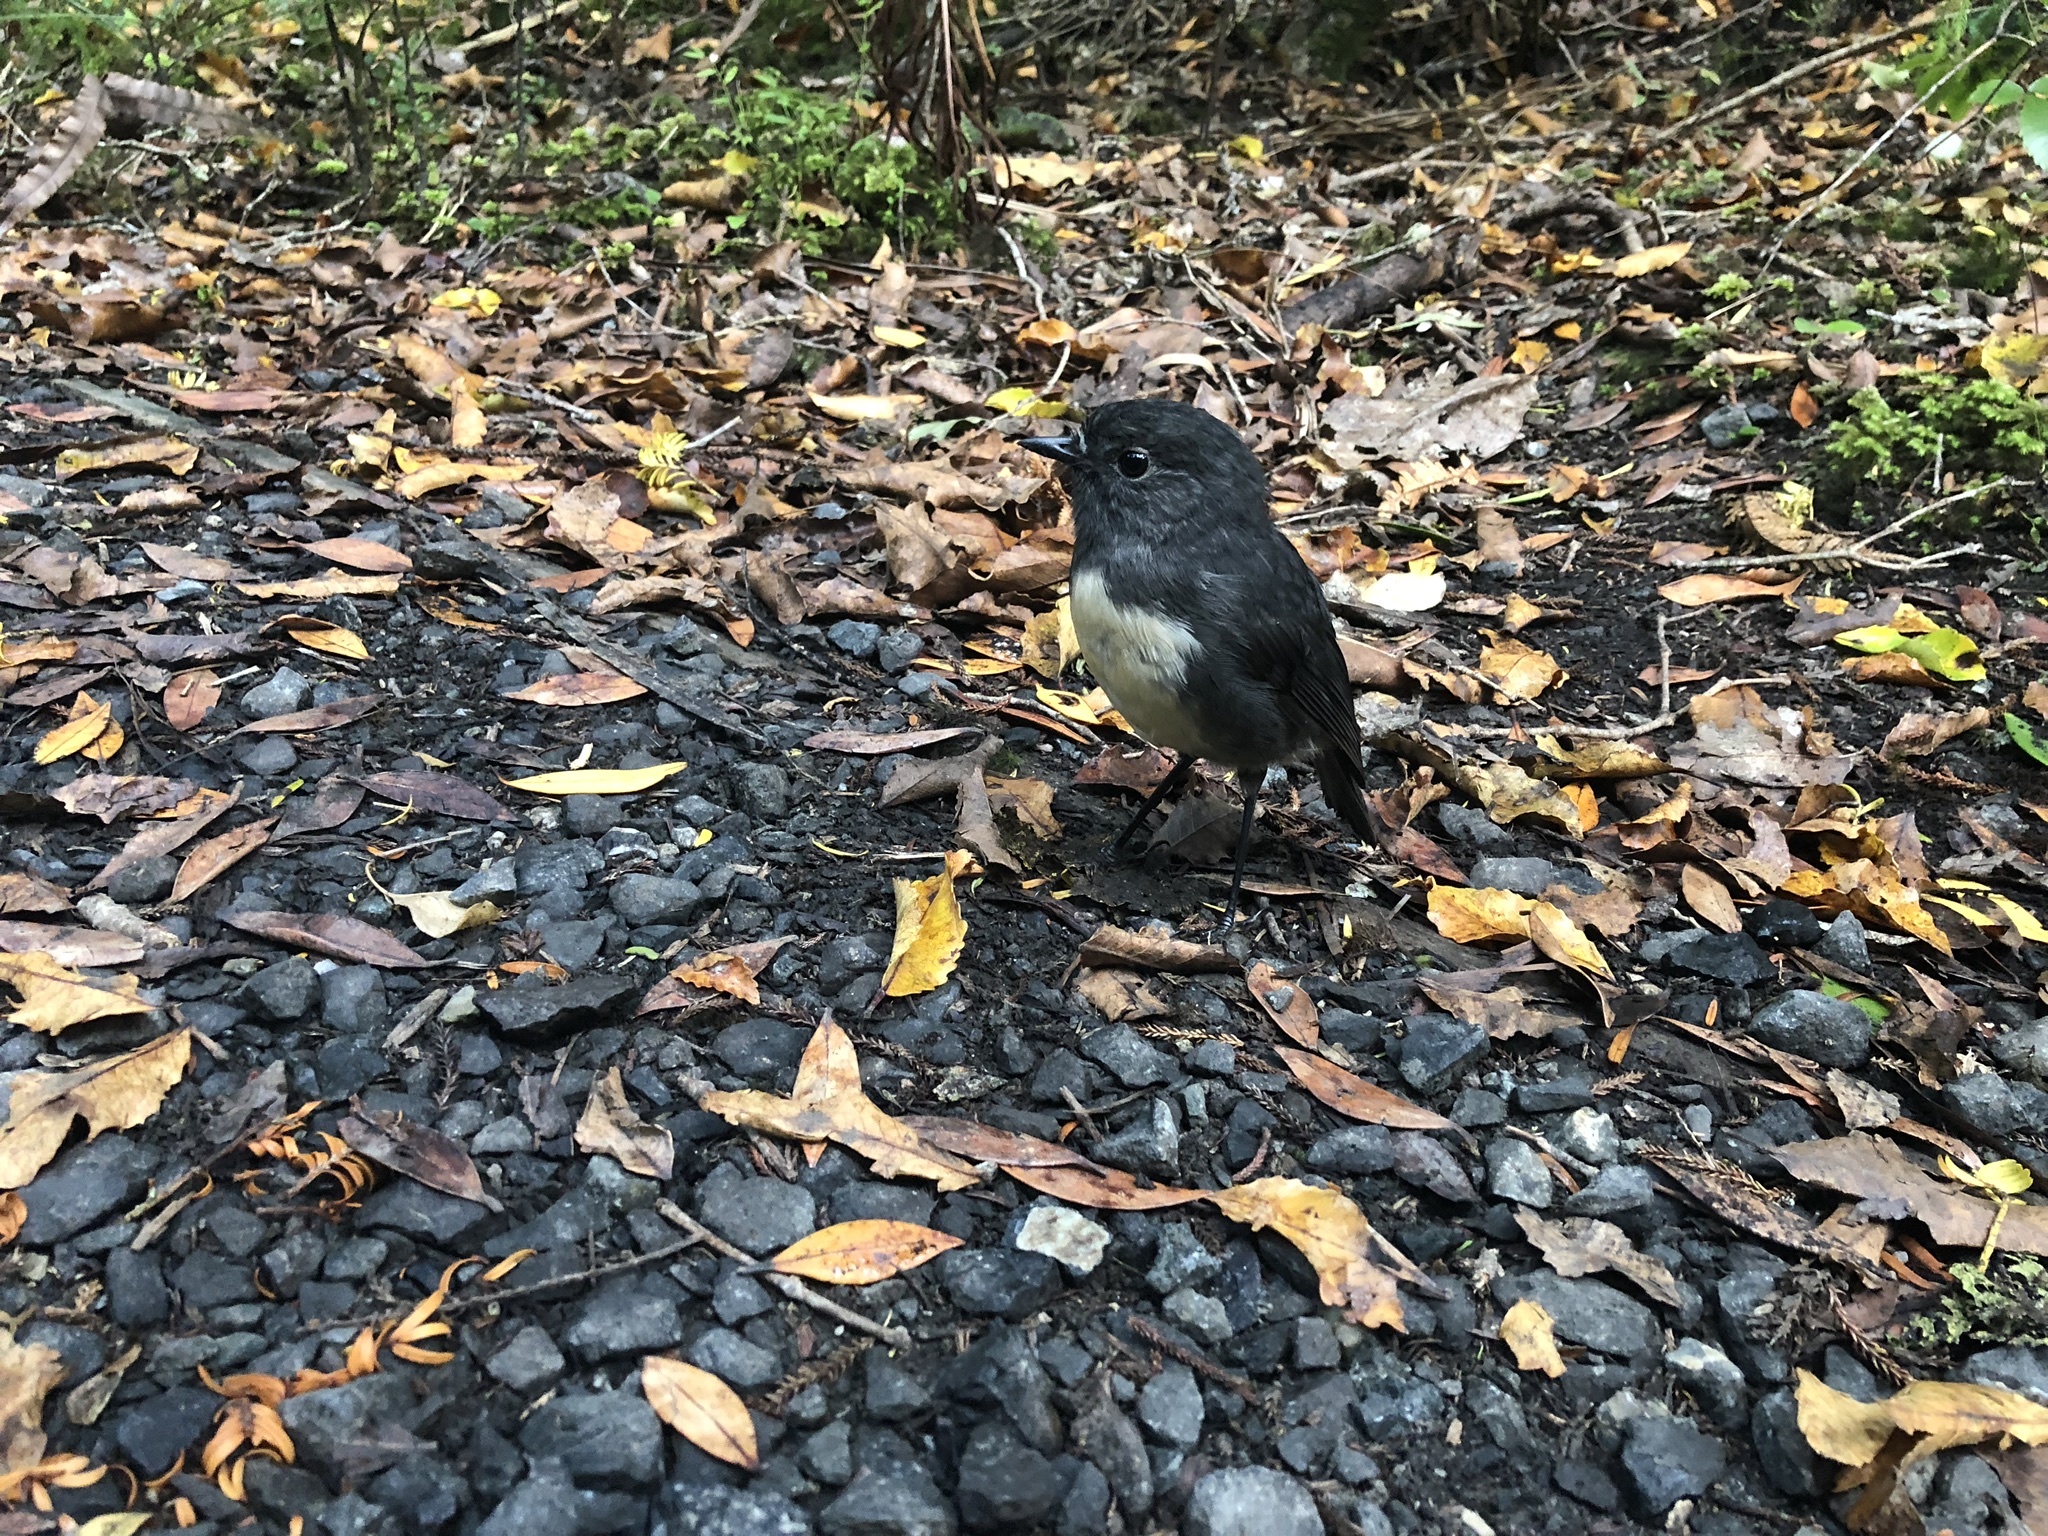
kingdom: Animalia
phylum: Chordata
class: Aves
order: Passeriformes
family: Petroicidae
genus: Petroica
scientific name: Petroica australis
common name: New zealand robin
